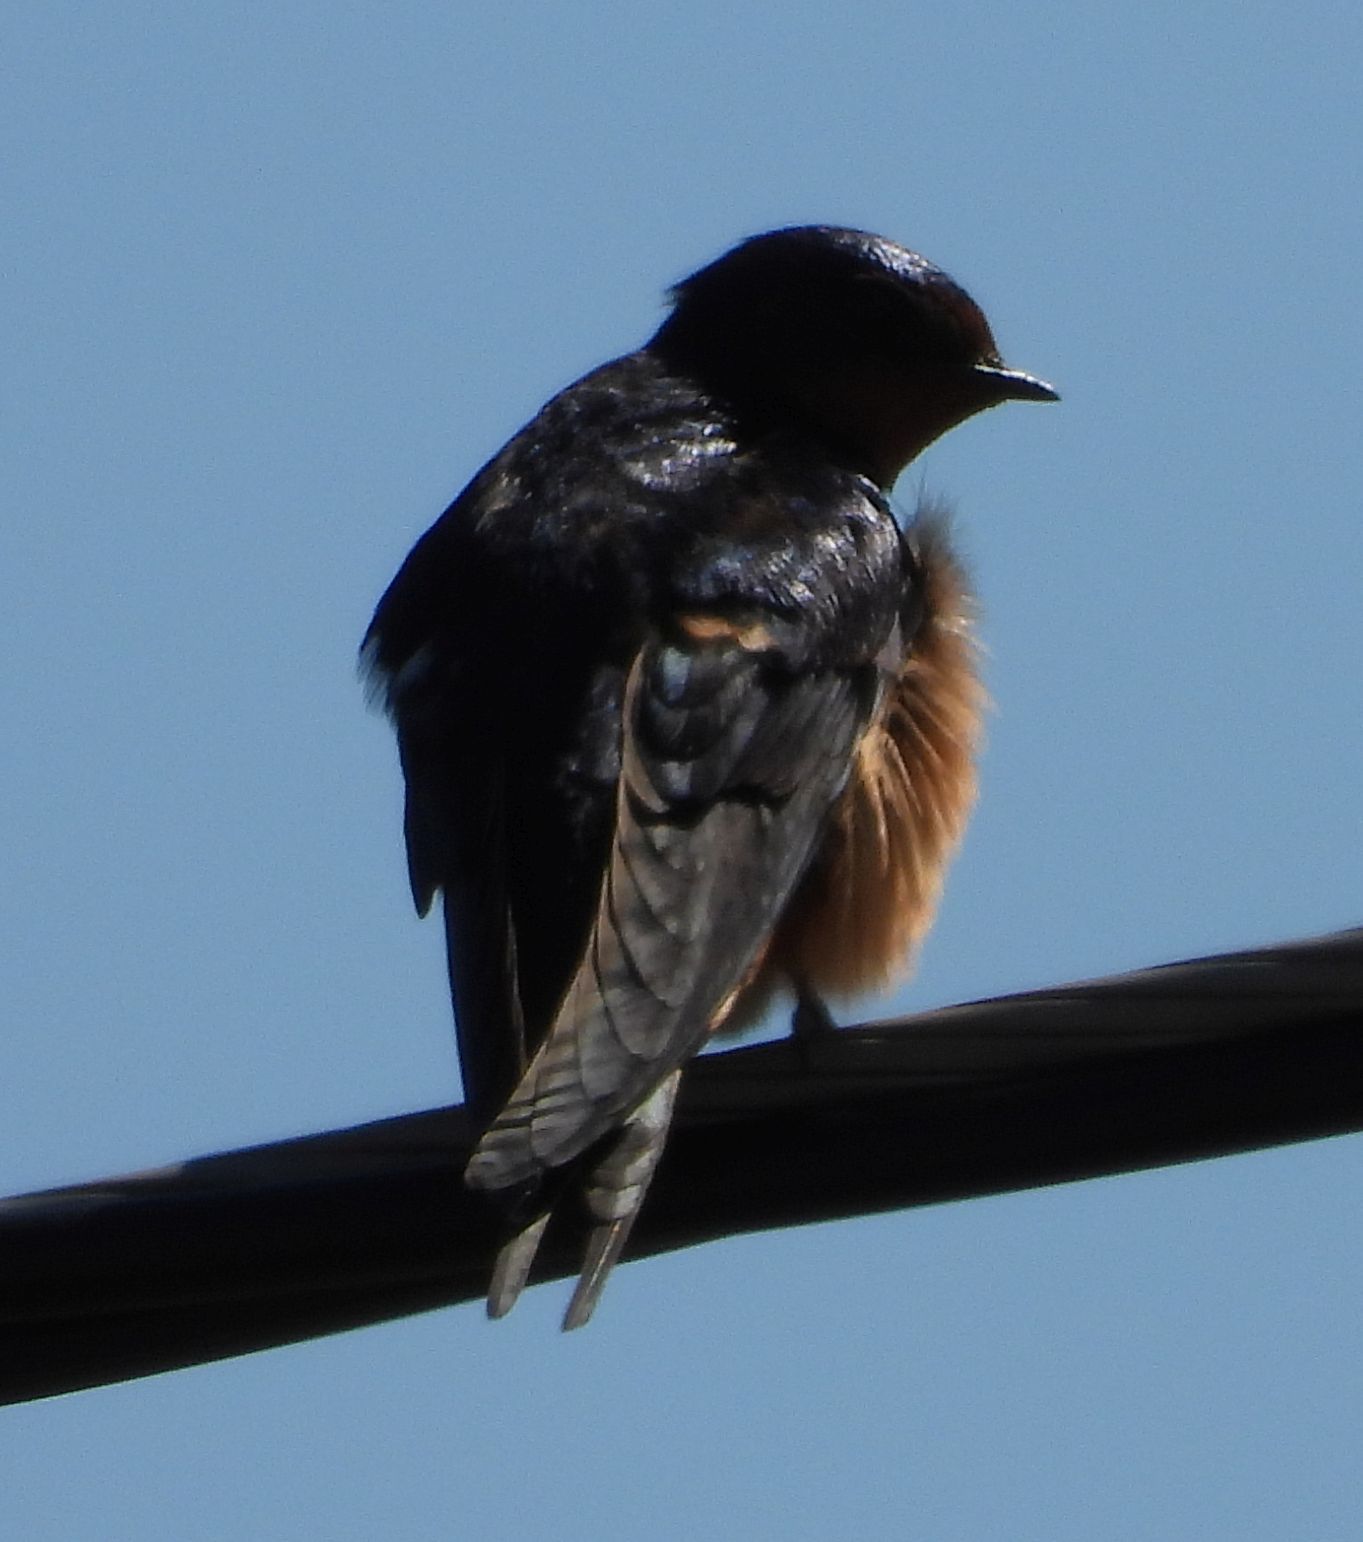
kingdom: Animalia
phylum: Chordata
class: Aves
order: Passeriformes
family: Hirundinidae
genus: Hirundo
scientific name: Hirundo rustica
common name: Barn swallow
